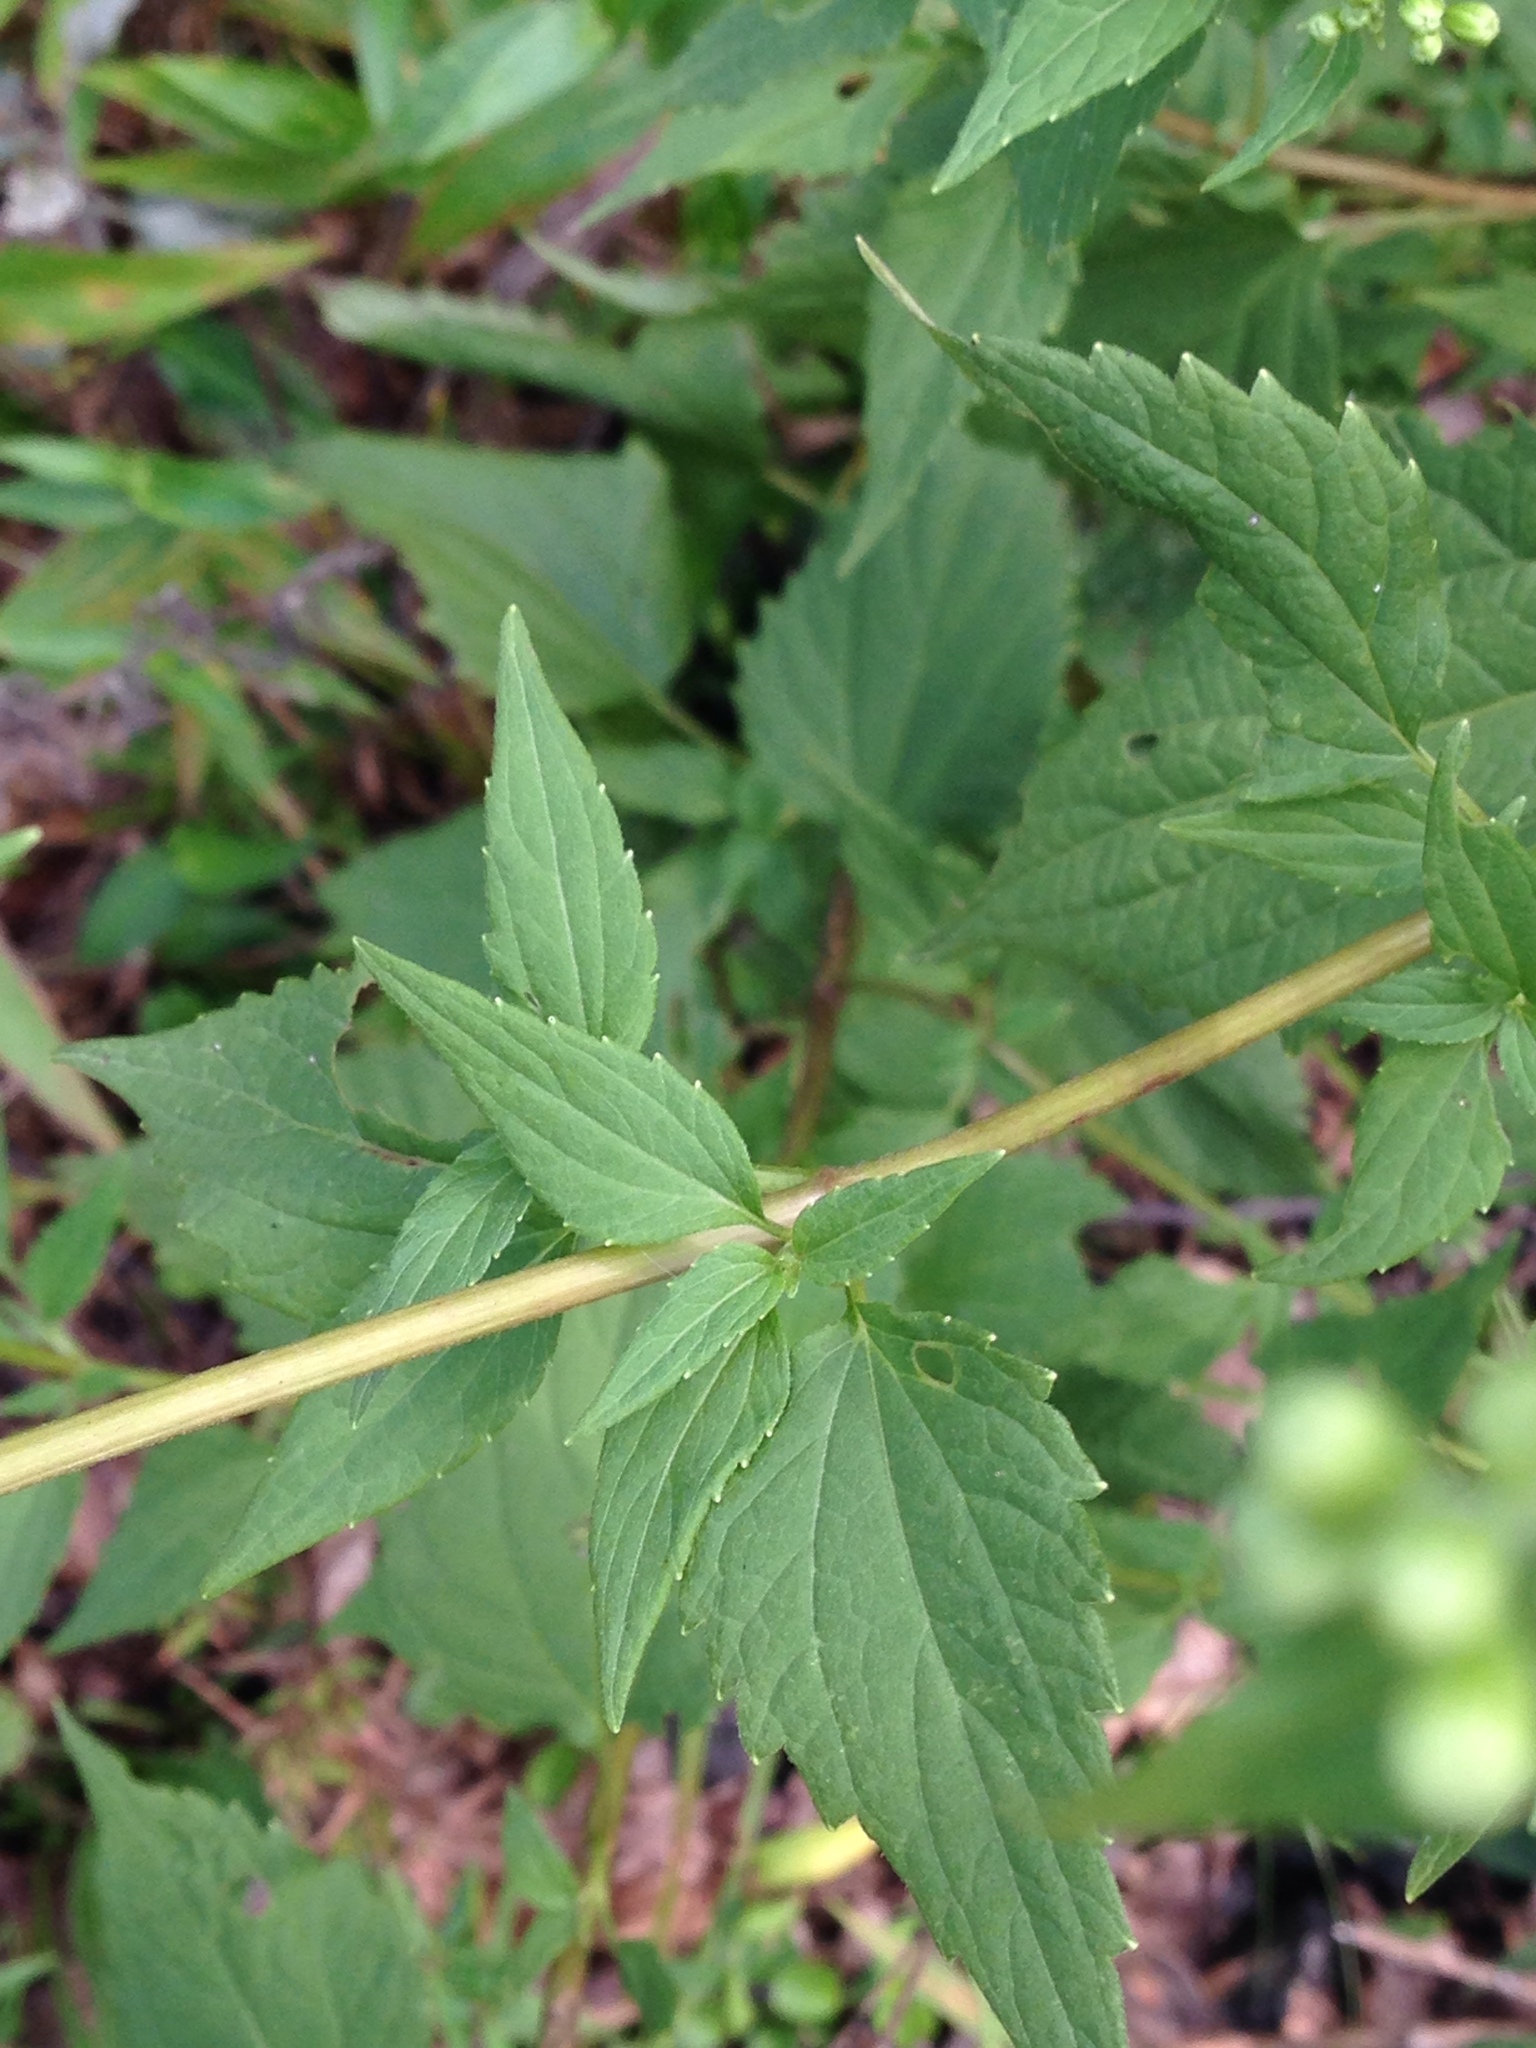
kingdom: Plantae
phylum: Tracheophyta
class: Magnoliopsida
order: Asterales
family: Asteraceae
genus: Ageratina
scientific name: Ageratina altissima
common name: White snakeroot
